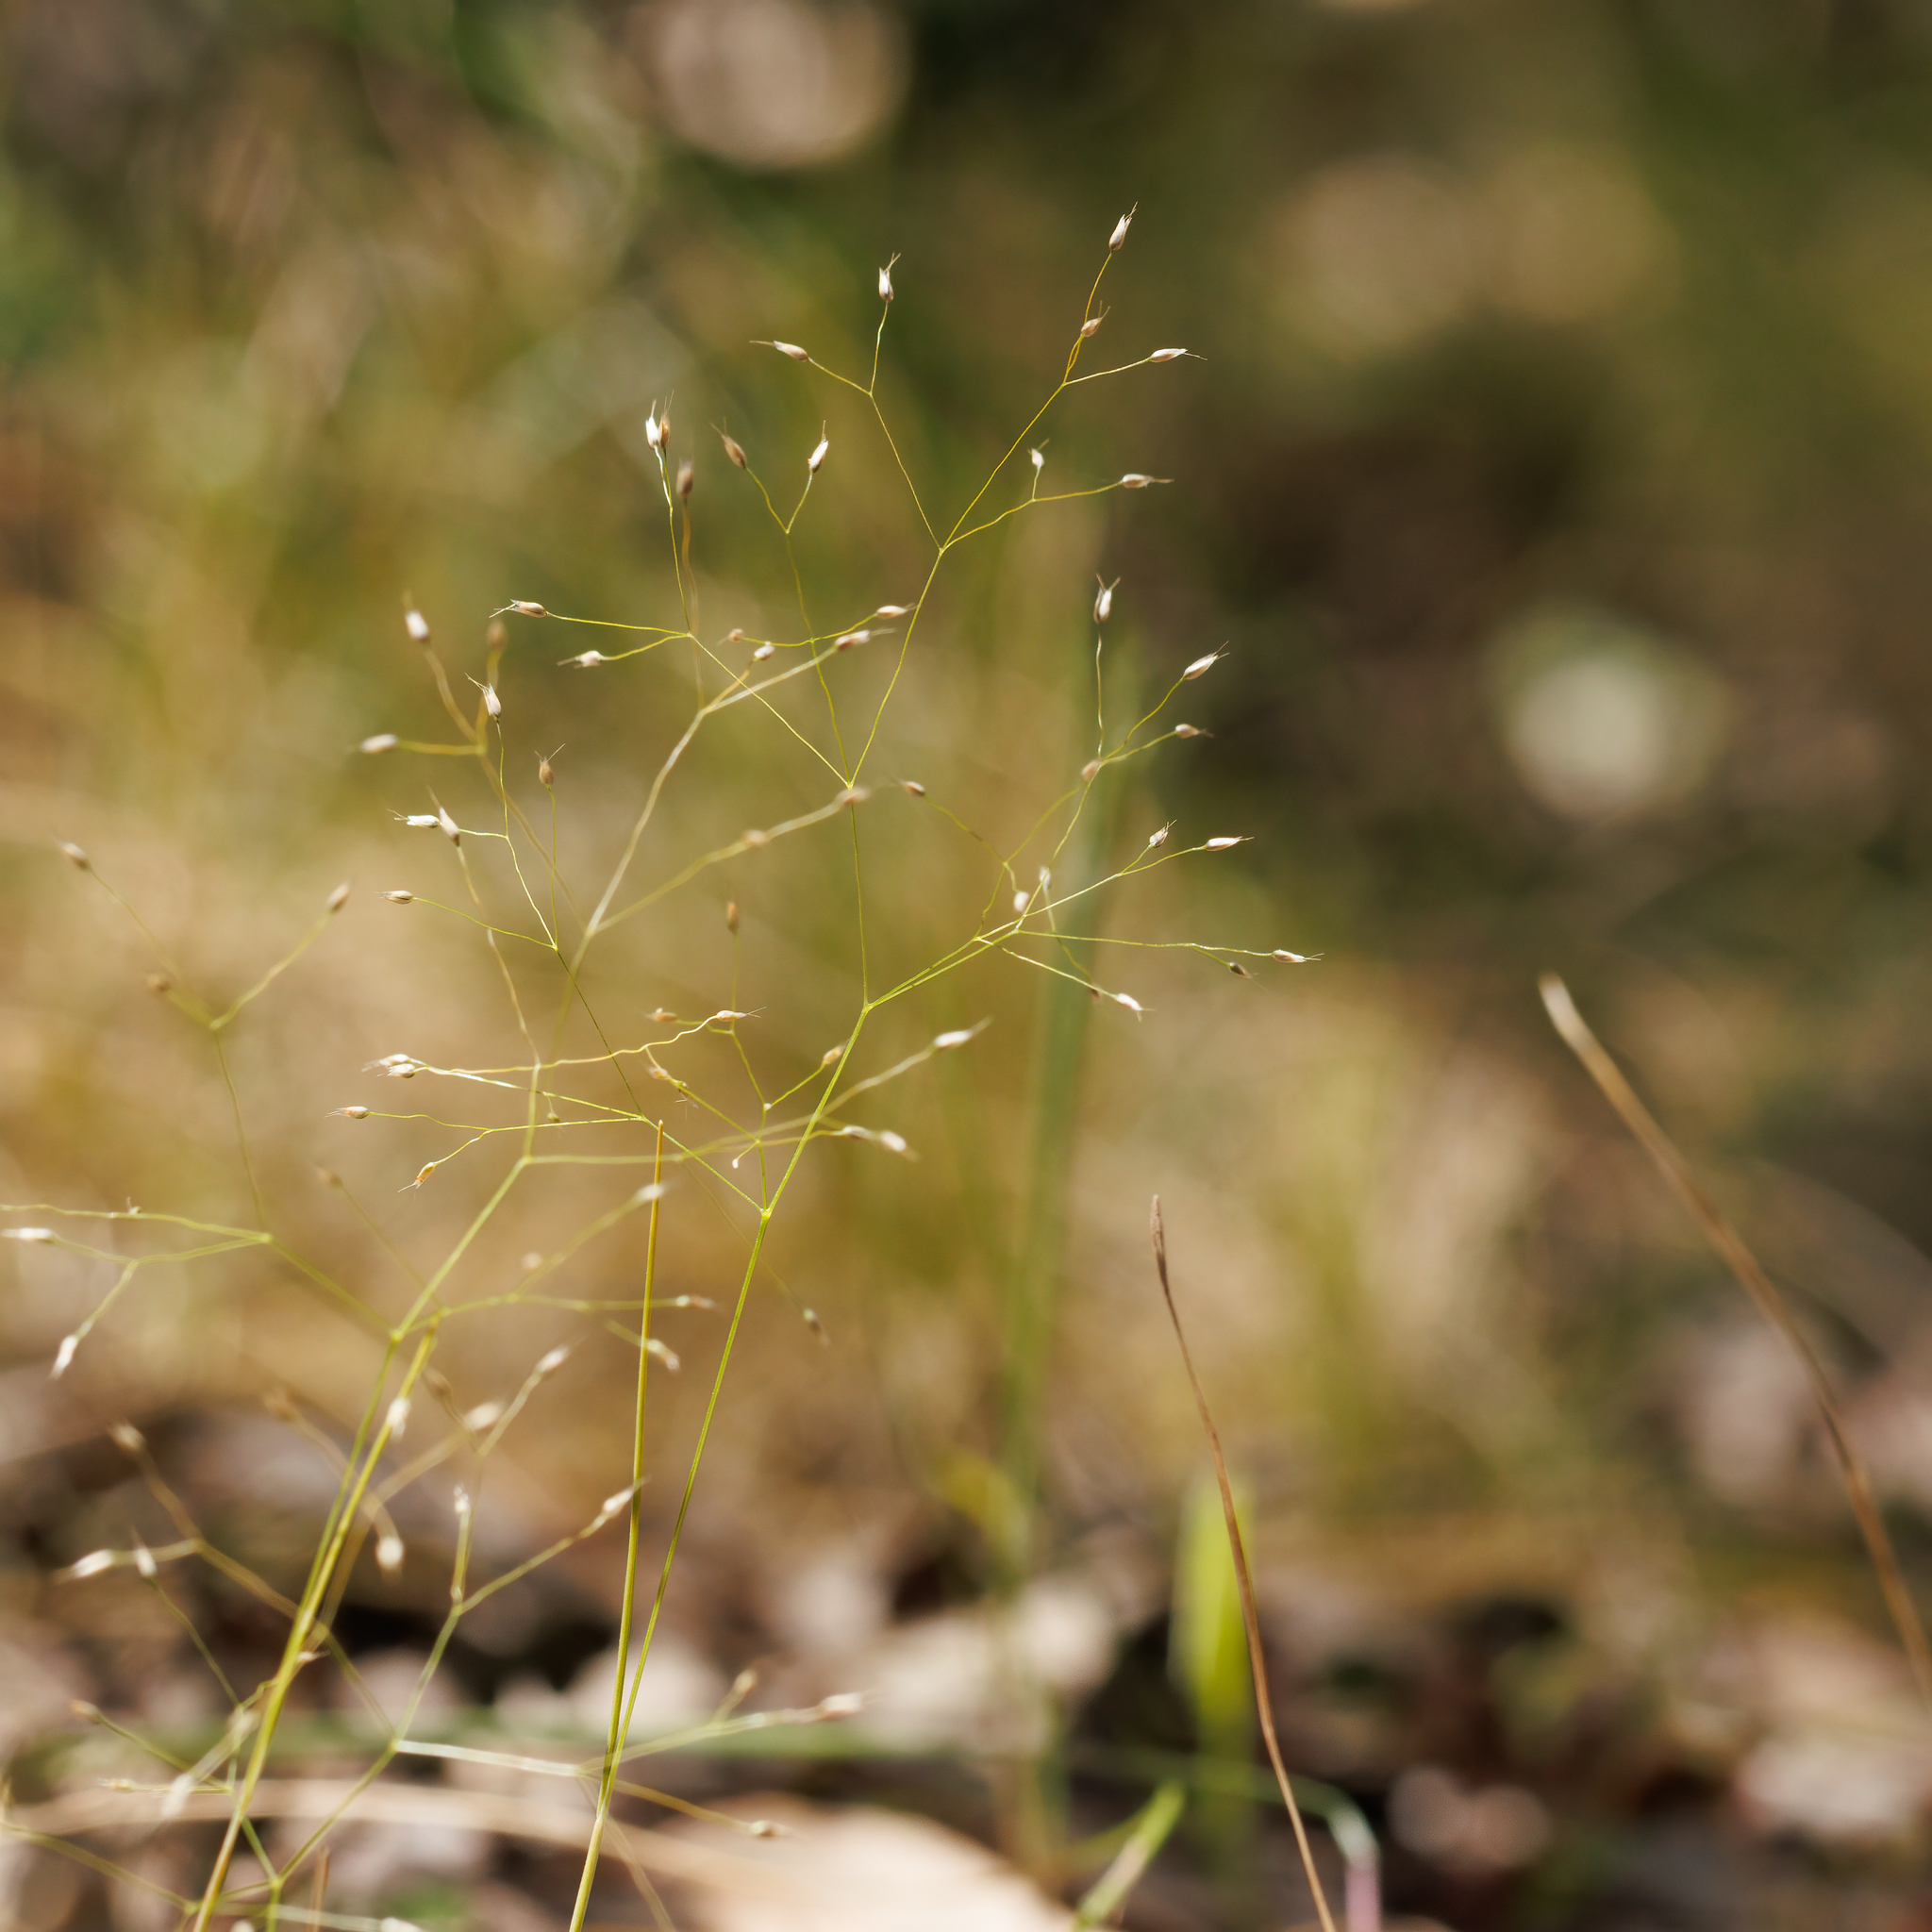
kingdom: Plantae
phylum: Tracheophyta
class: Liliopsida
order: Poales
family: Poaceae
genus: Aira
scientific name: Aira cupaniana
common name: Silver hairgrass
